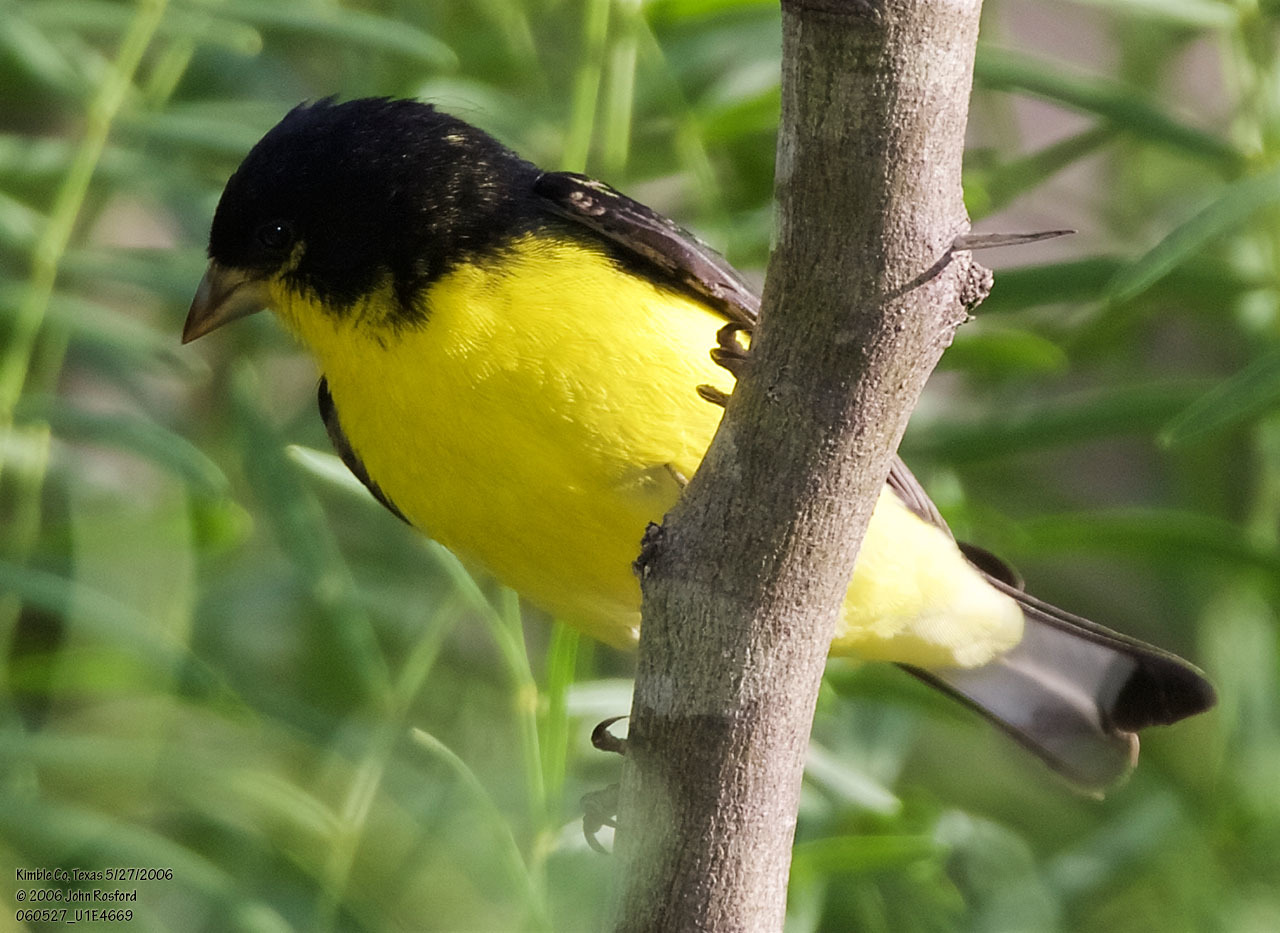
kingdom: Animalia
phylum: Chordata
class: Aves
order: Passeriformes
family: Fringillidae
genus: Spinus
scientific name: Spinus psaltria
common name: Lesser goldfinch
